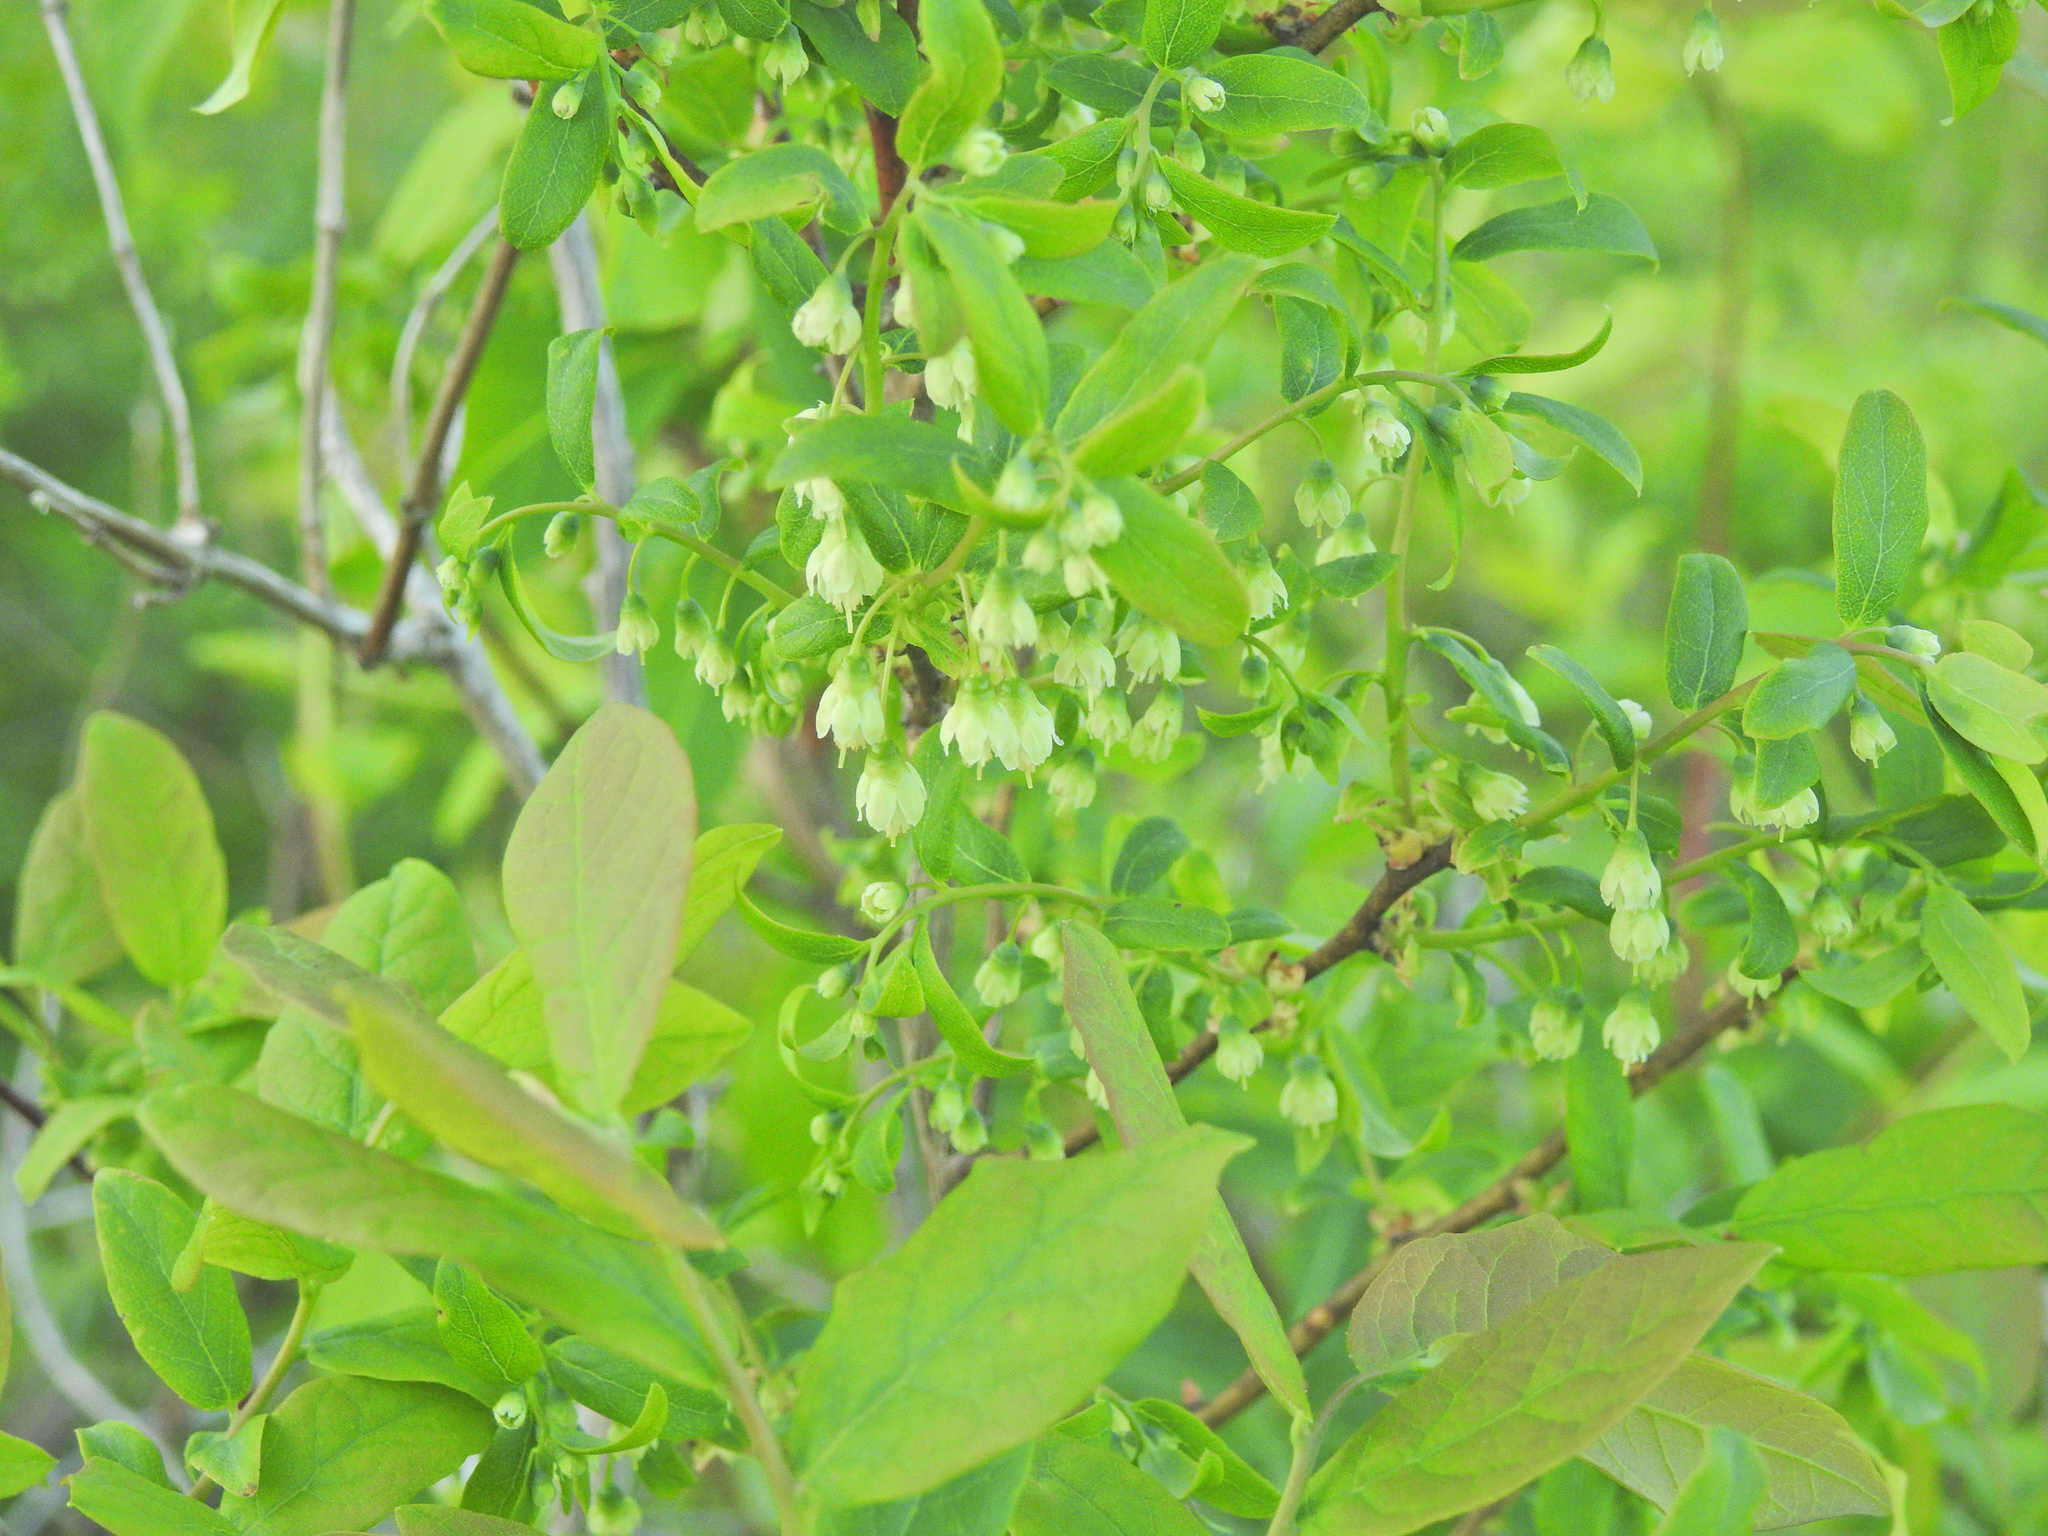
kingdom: Plantae
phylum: Tracheophyta
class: Magnoliopsida
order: Ericales
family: Ericaceae
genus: Vaccinium
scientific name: Vaccinium stamineum
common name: Deerberry
